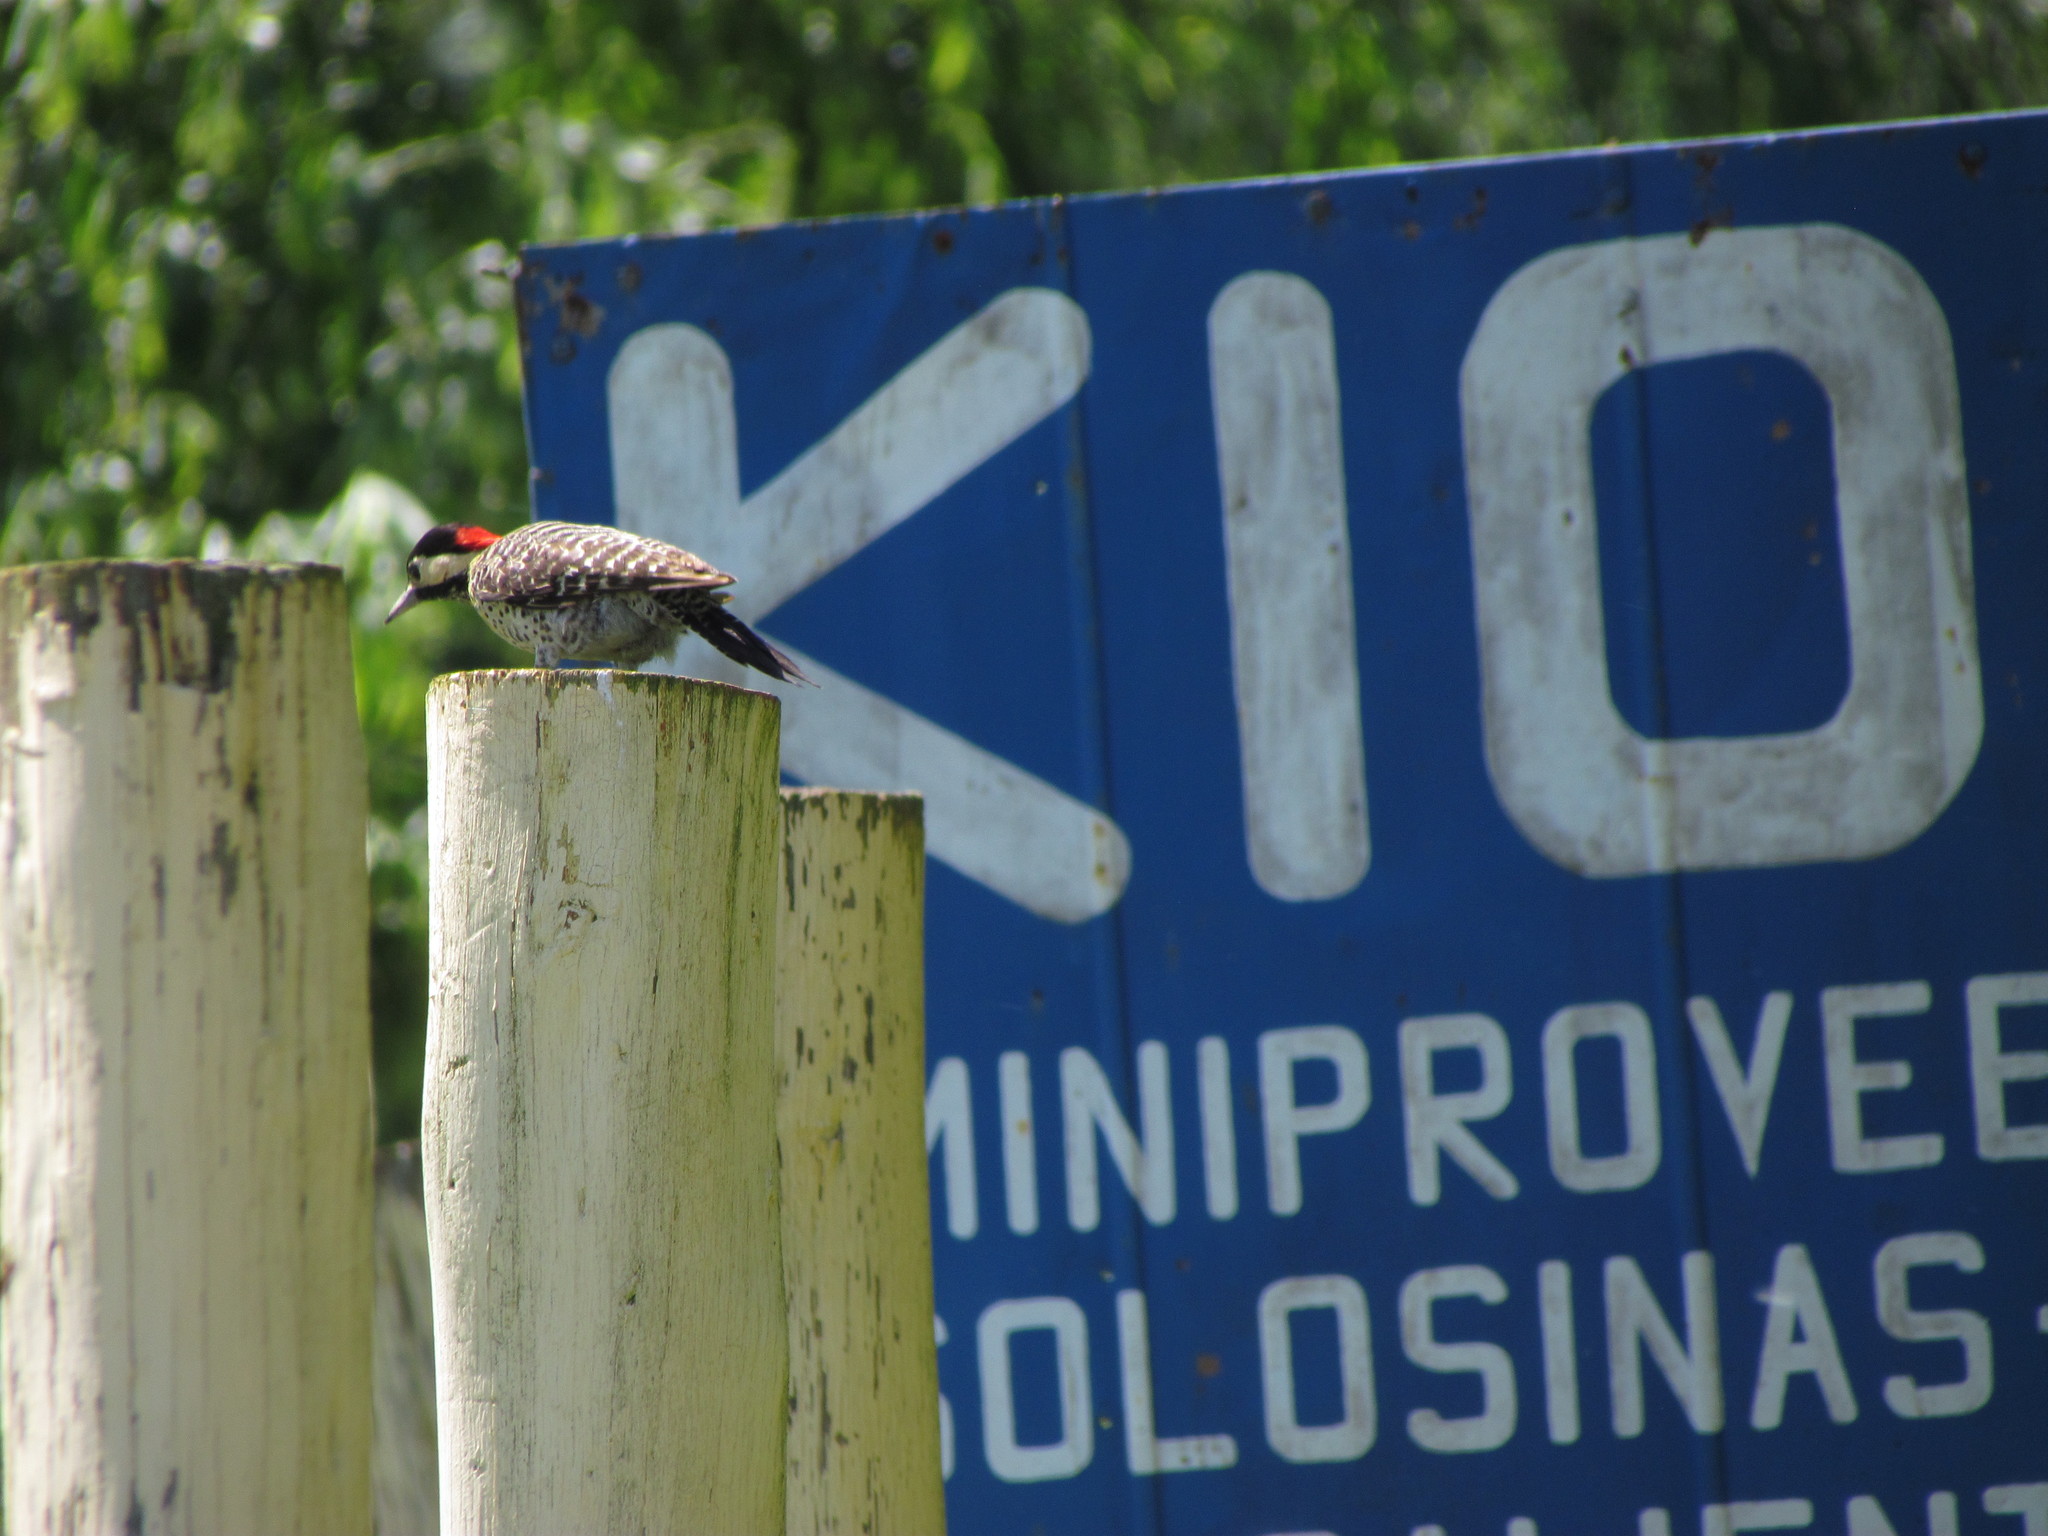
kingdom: Animalia
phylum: Chordata
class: Aves
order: Piciformes
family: Picidae
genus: Colaptes
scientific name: Colaptes melanochloros
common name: Green-barred woodpecker
